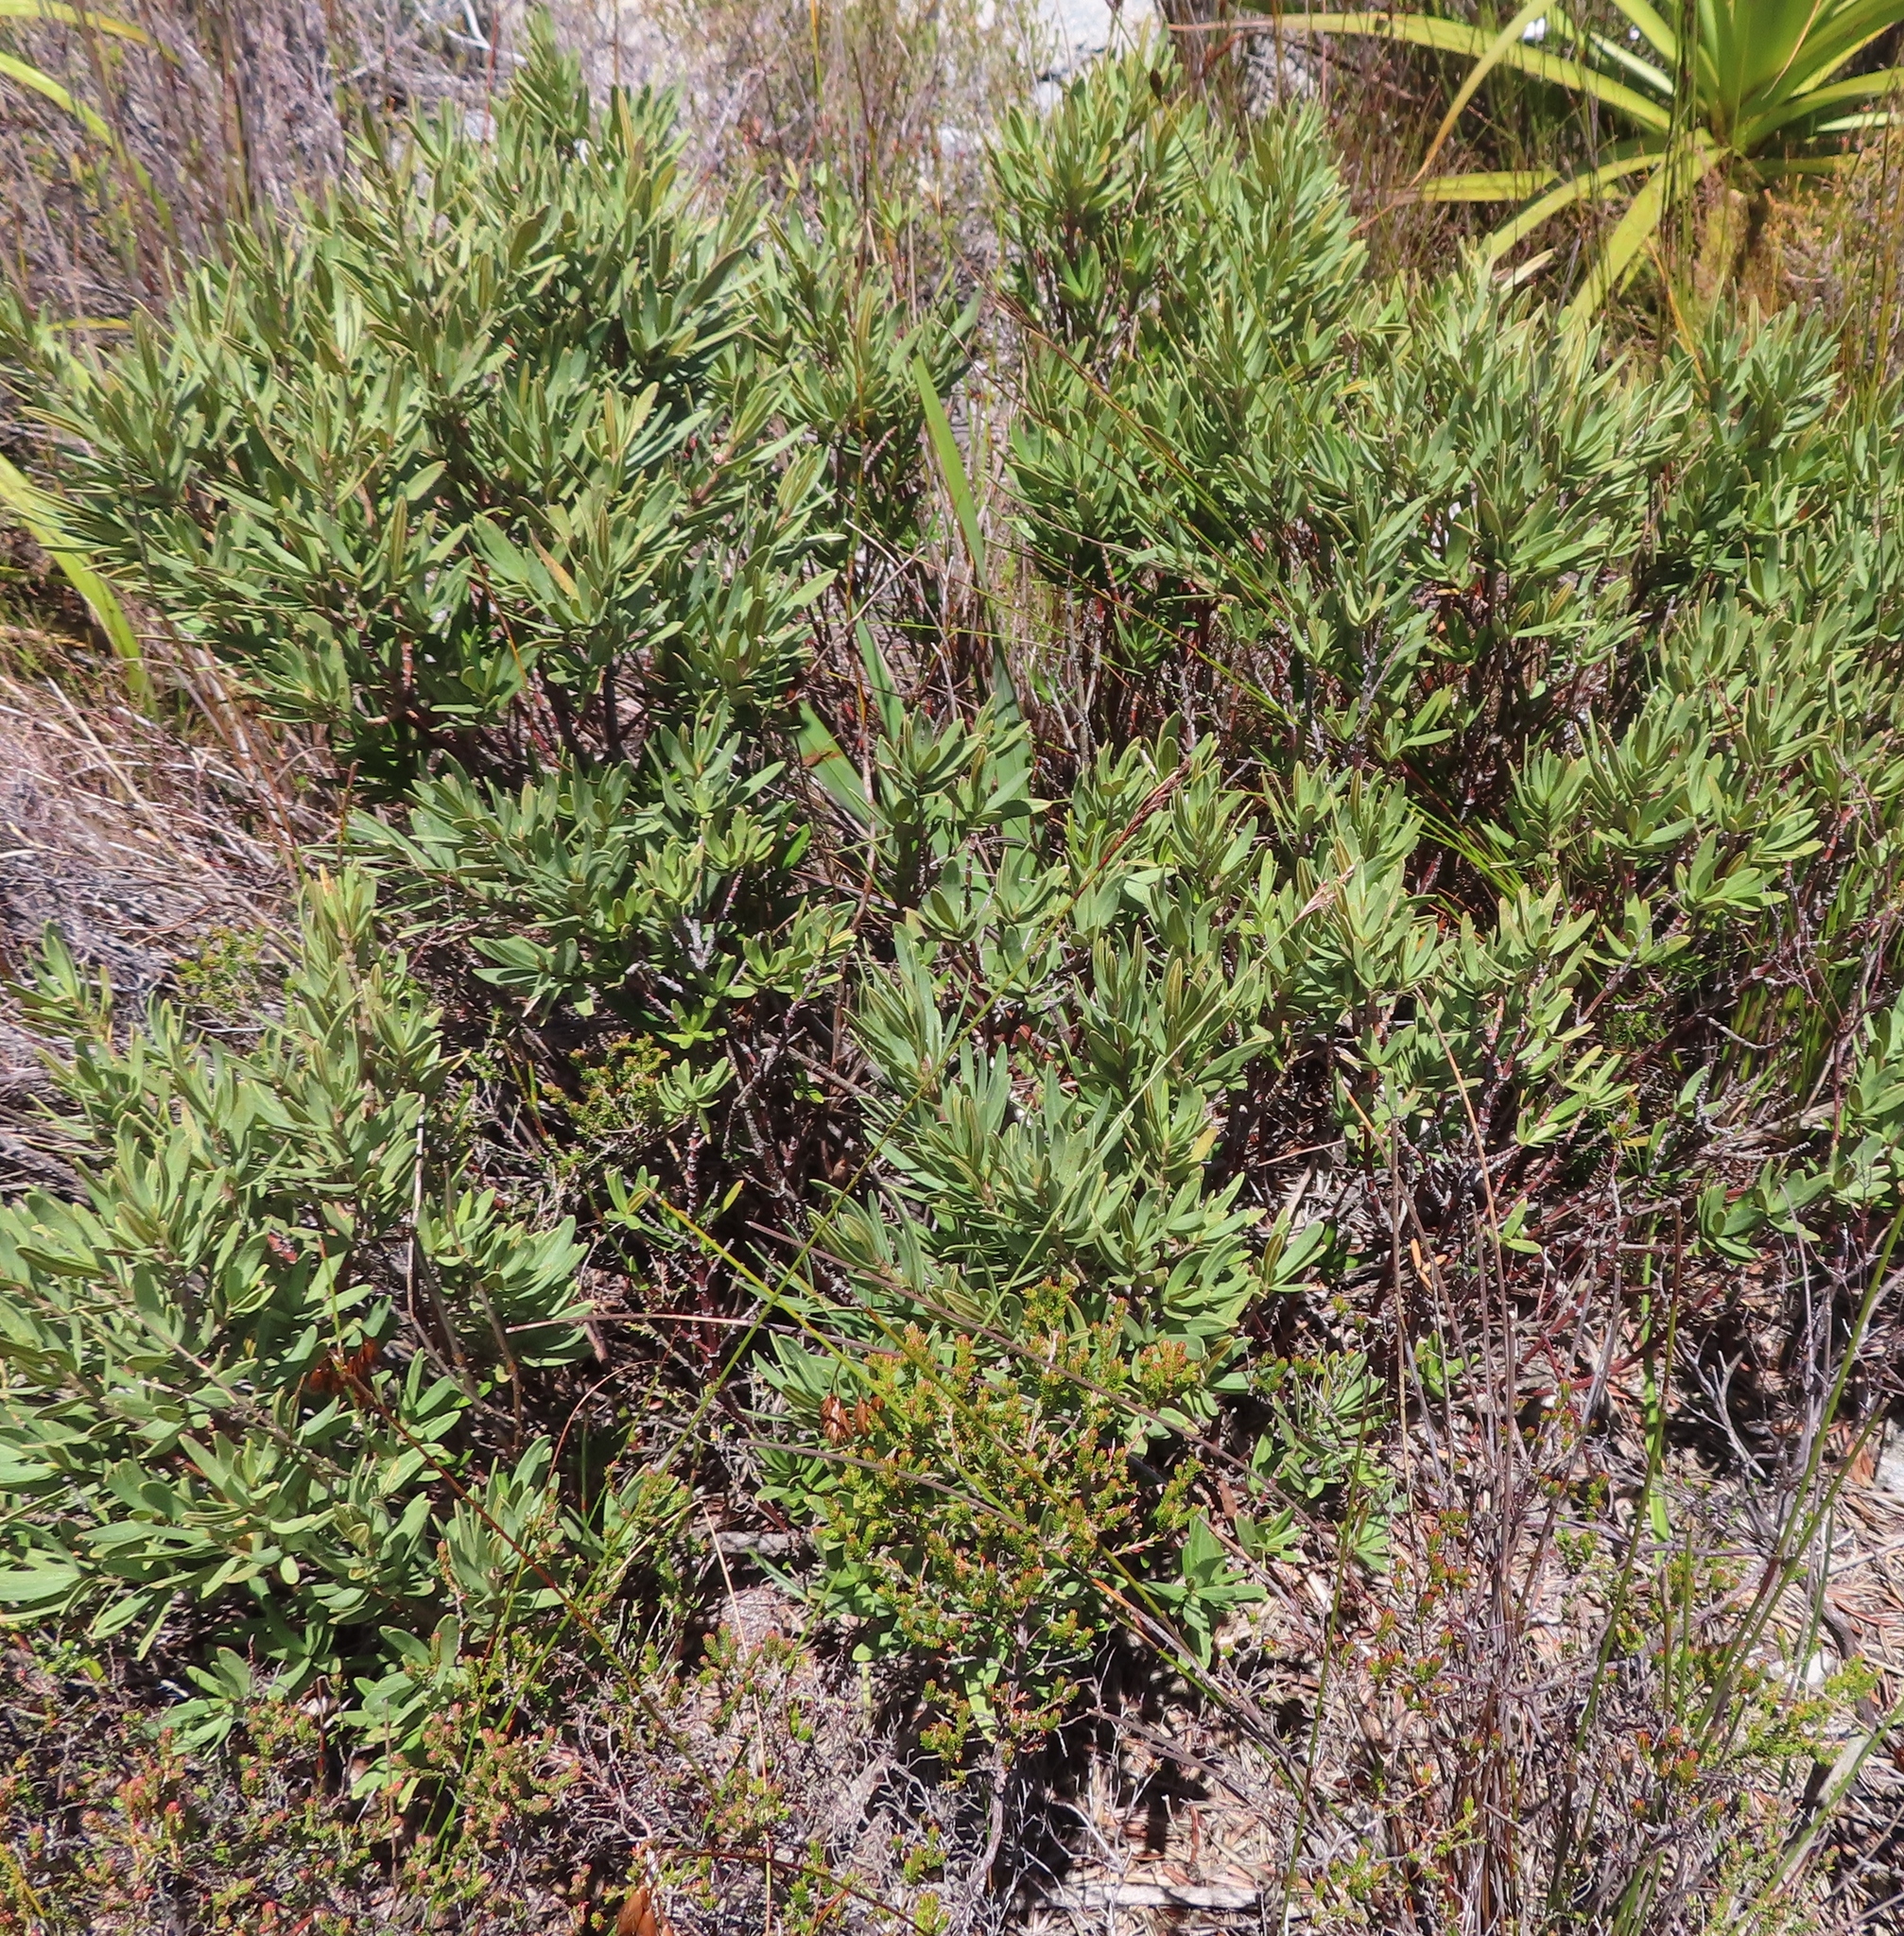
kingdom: Plantae
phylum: Tracheophyta
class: Magnoliopsida
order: Cornales
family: Grubbiaceae
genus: Grubbia
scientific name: Grubbia tomentosa
